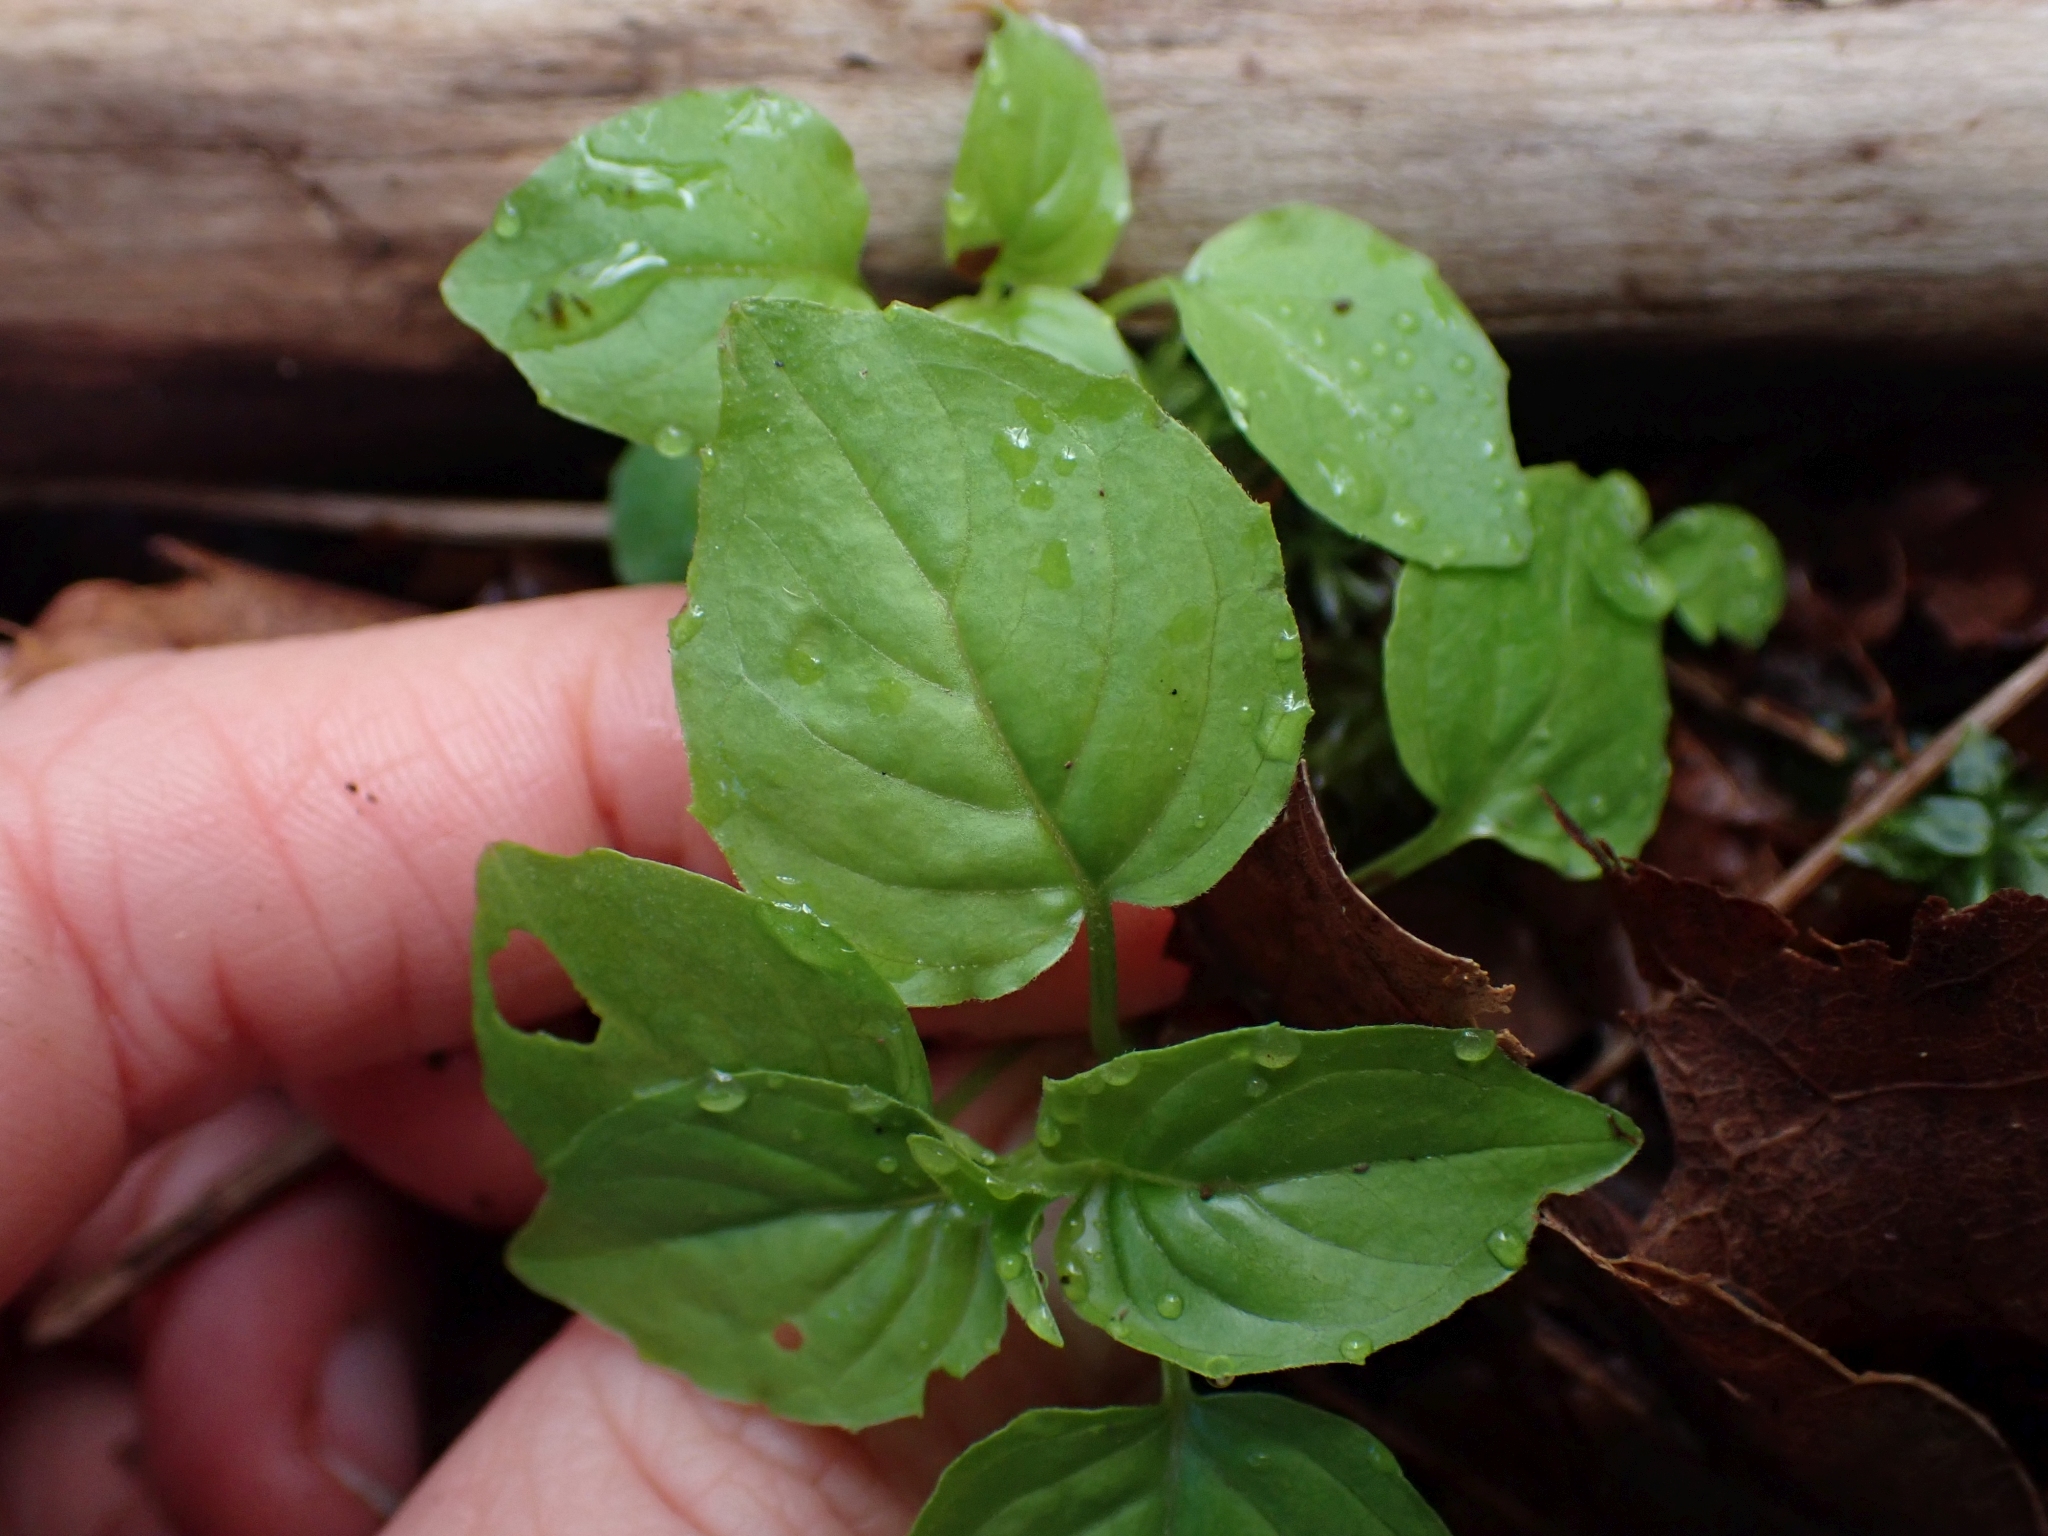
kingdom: Plantae
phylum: Tracheophyta
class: Magnoliopsida
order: Myrtales
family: Onagraceae
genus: Circaea
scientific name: Circaea alpina
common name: Alpine enchanter's-nightshade
